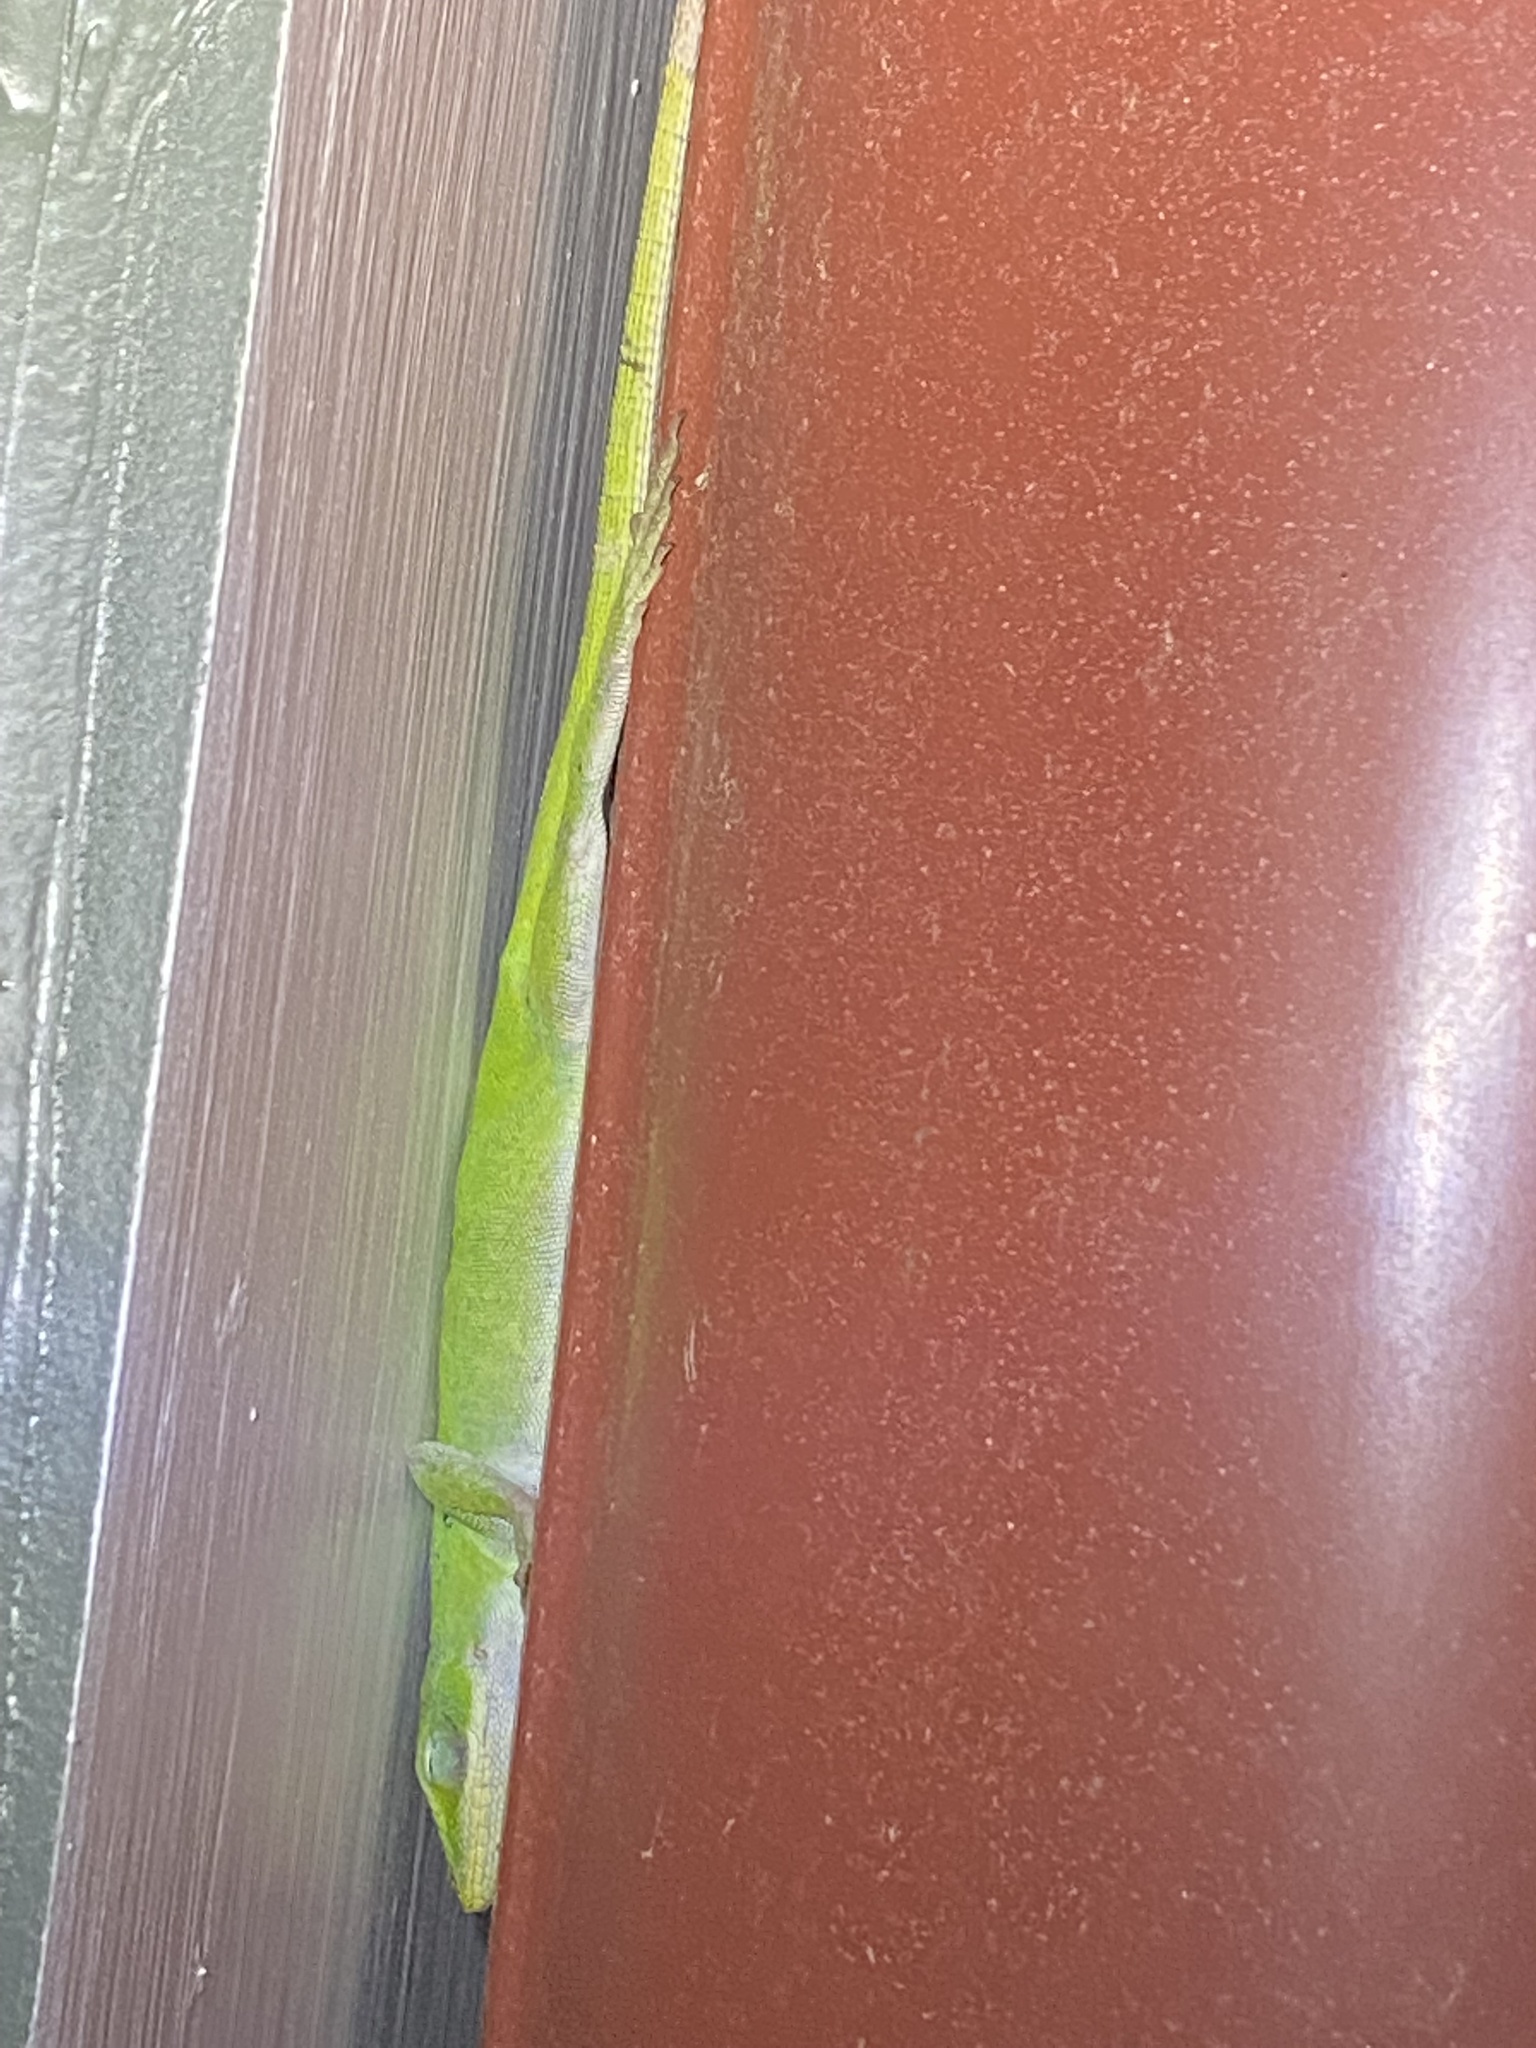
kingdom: Animalia
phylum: Chordata
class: Squamata
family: Dactyloidae
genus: Anolis
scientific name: Anolis carolinensis
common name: Green anole
